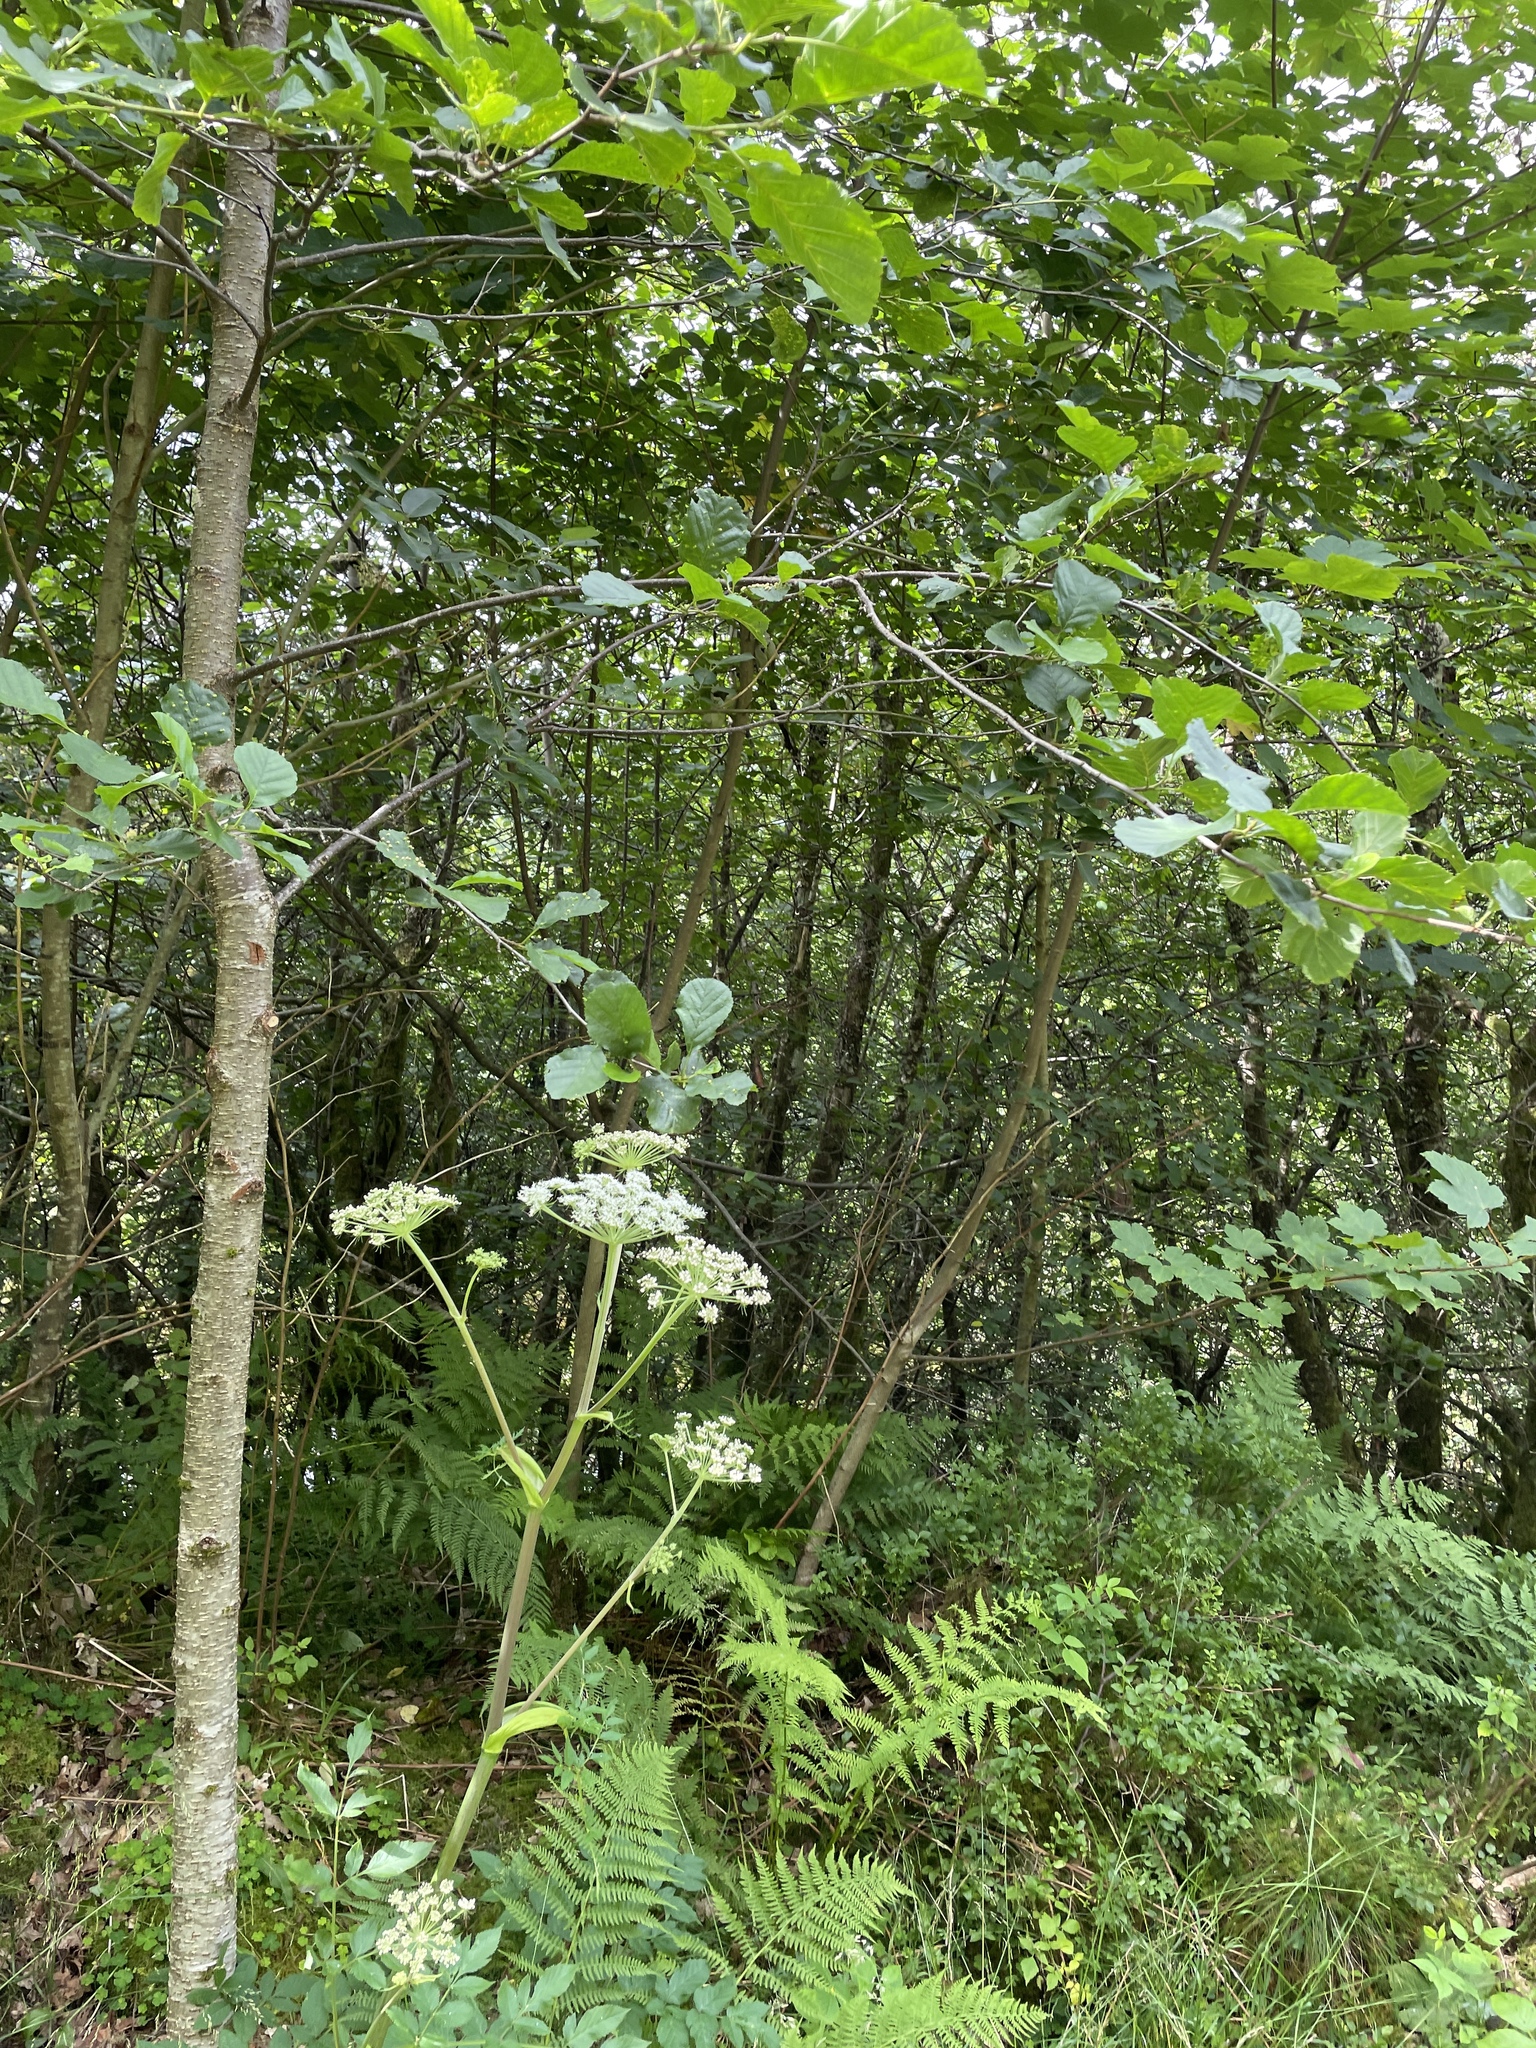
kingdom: Plantae
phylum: Tracheophyta
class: Magnoliopsida
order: Fagales
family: Betulaceae
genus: Alnus
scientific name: Alnus glutinosa
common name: Black alder
